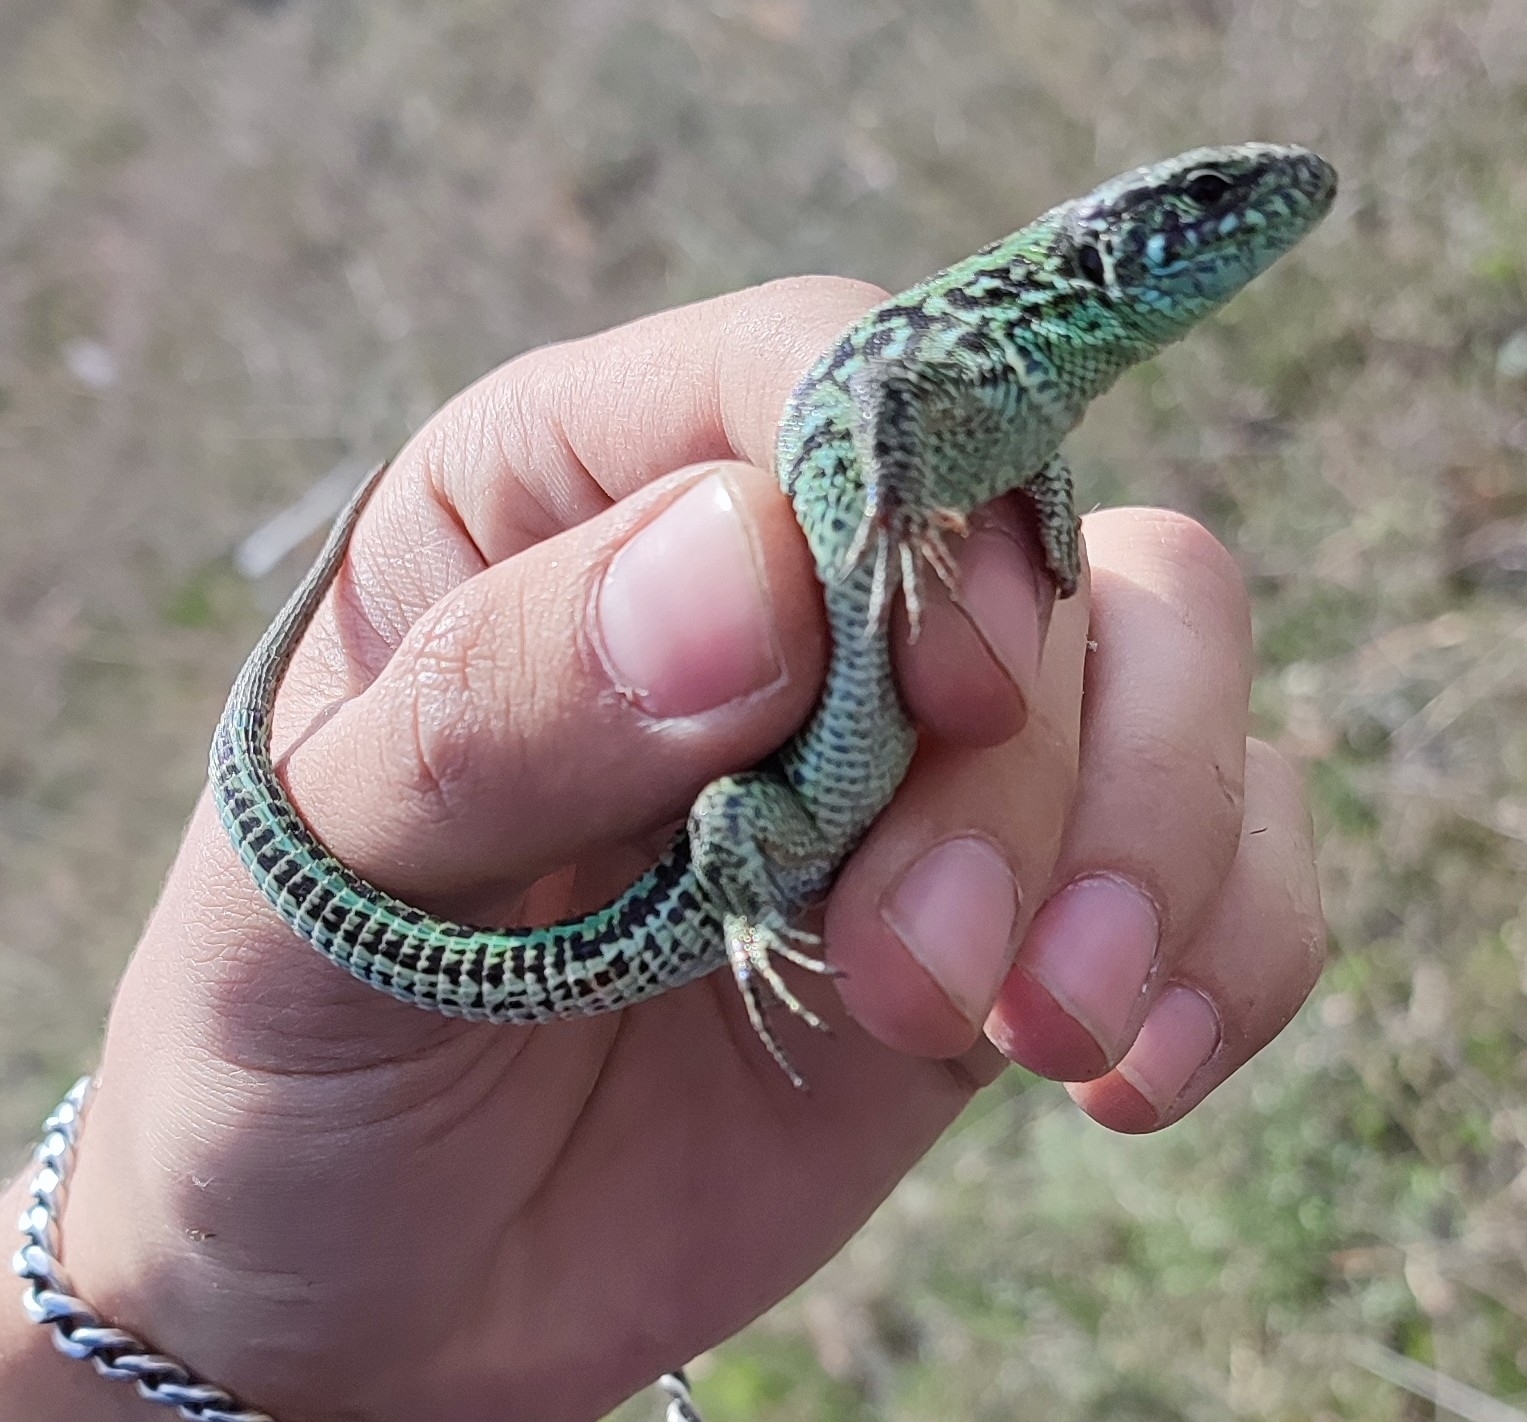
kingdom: Animalia
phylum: Chordata
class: Squamata
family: Lacertidae
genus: Lacerta
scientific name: Lacerta agilis
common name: Sand lizard
